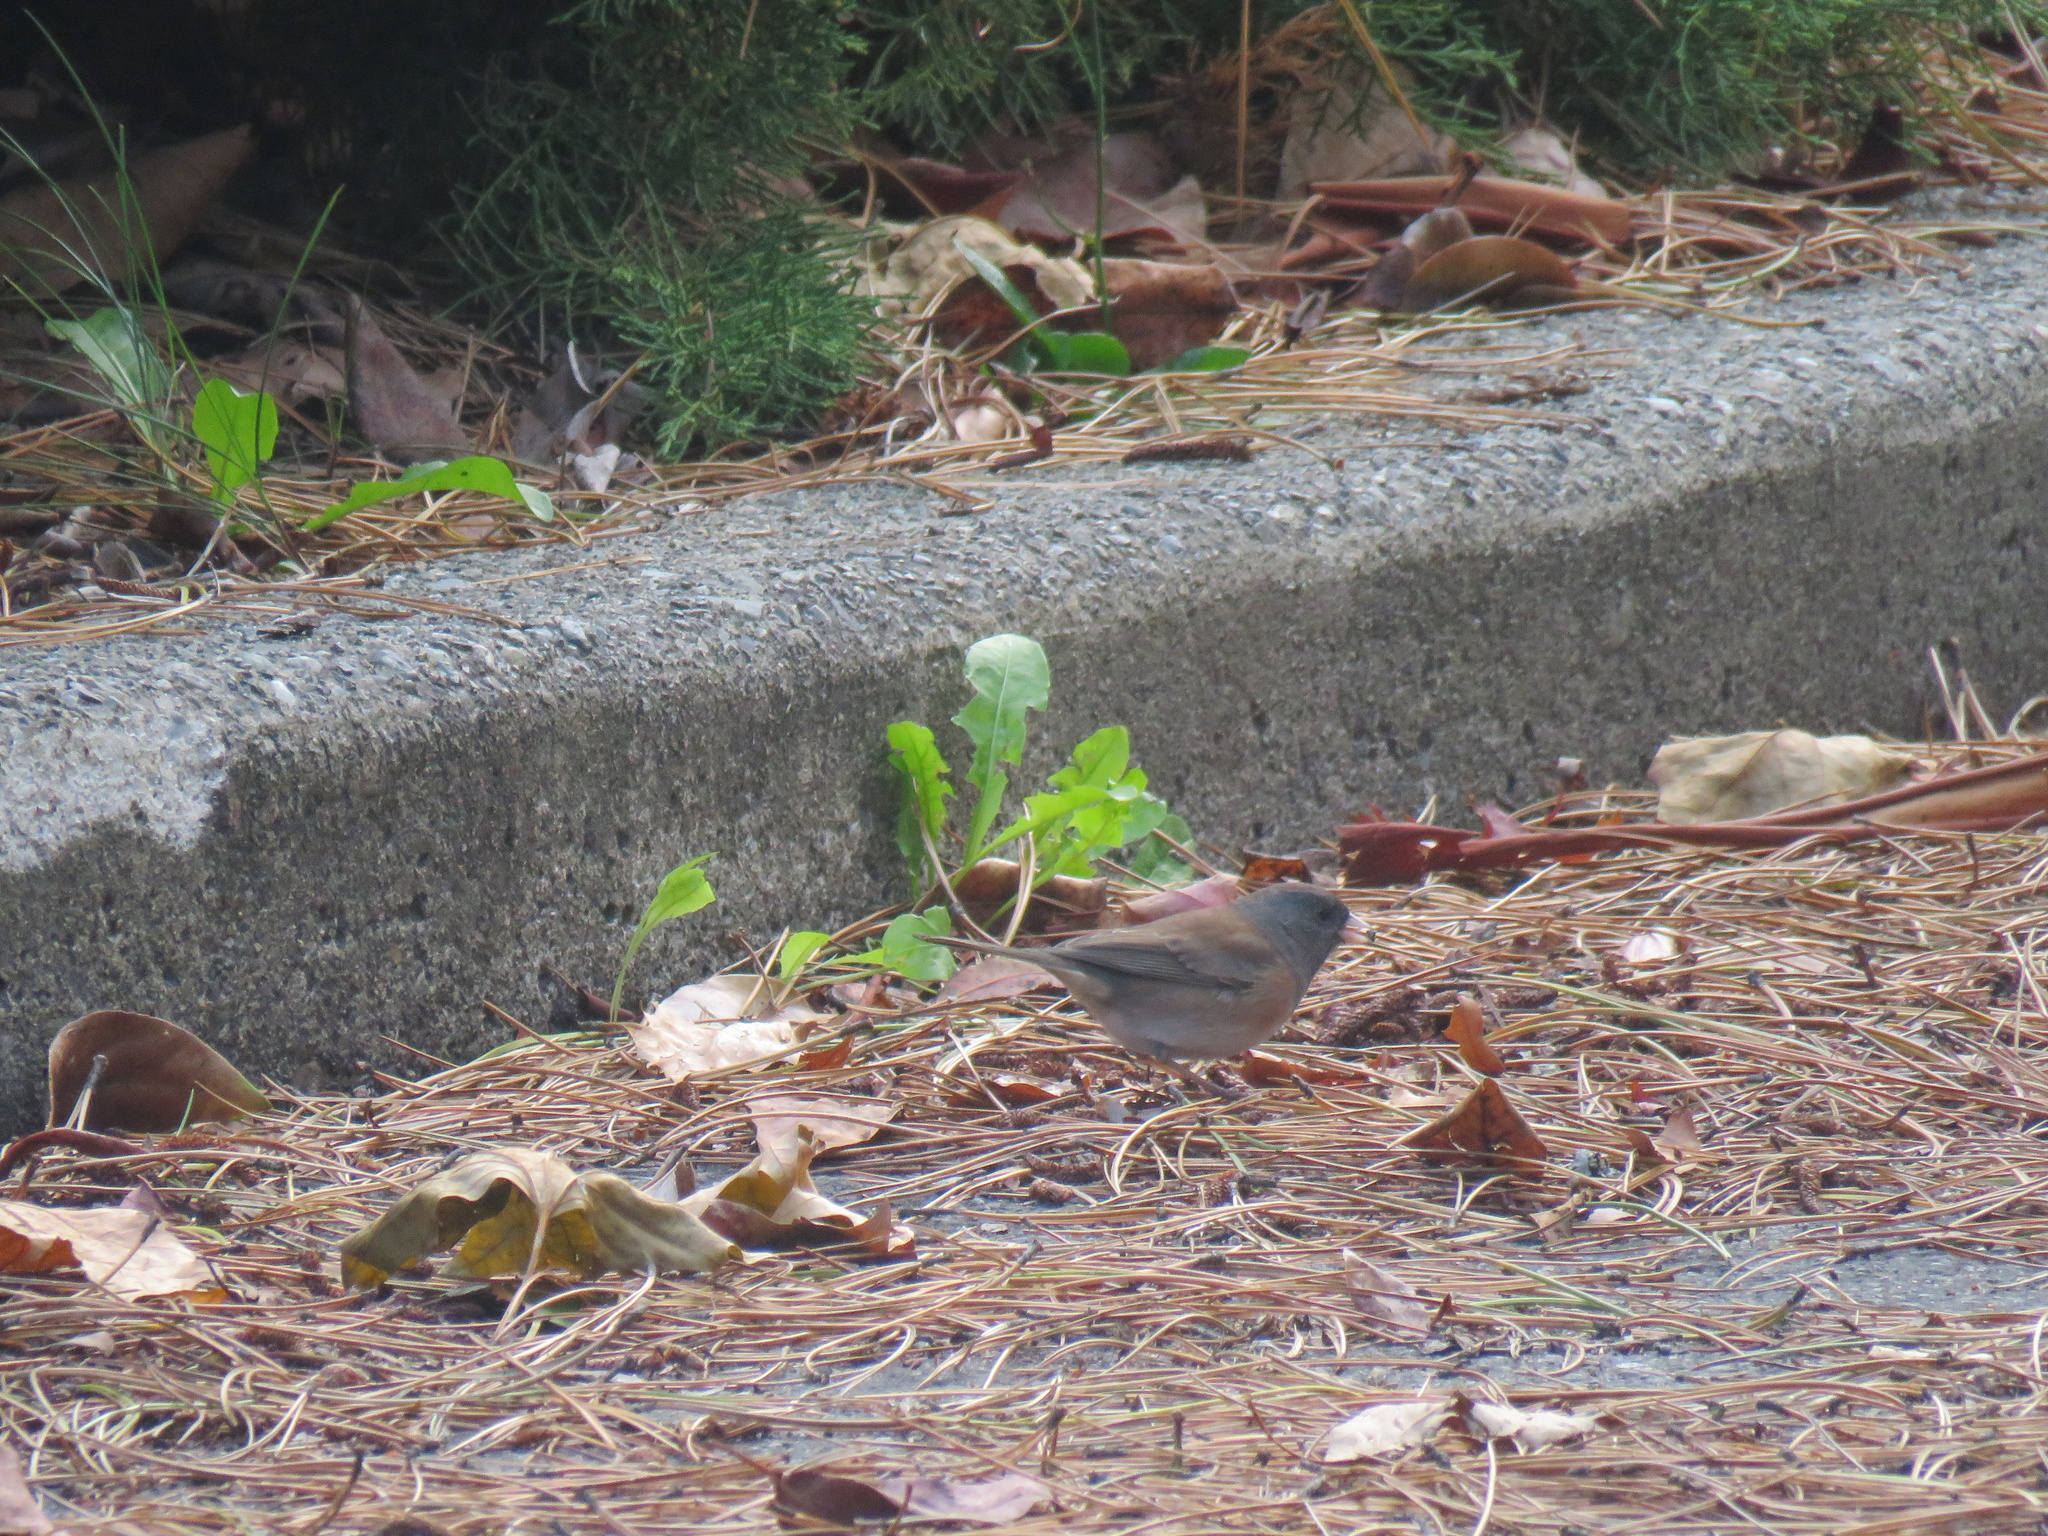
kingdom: Animalia
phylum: Chordata
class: Aves
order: Passeriformes
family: Passerellidae
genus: Junco
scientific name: Junco hyemalis
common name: Dark-eyed junco
